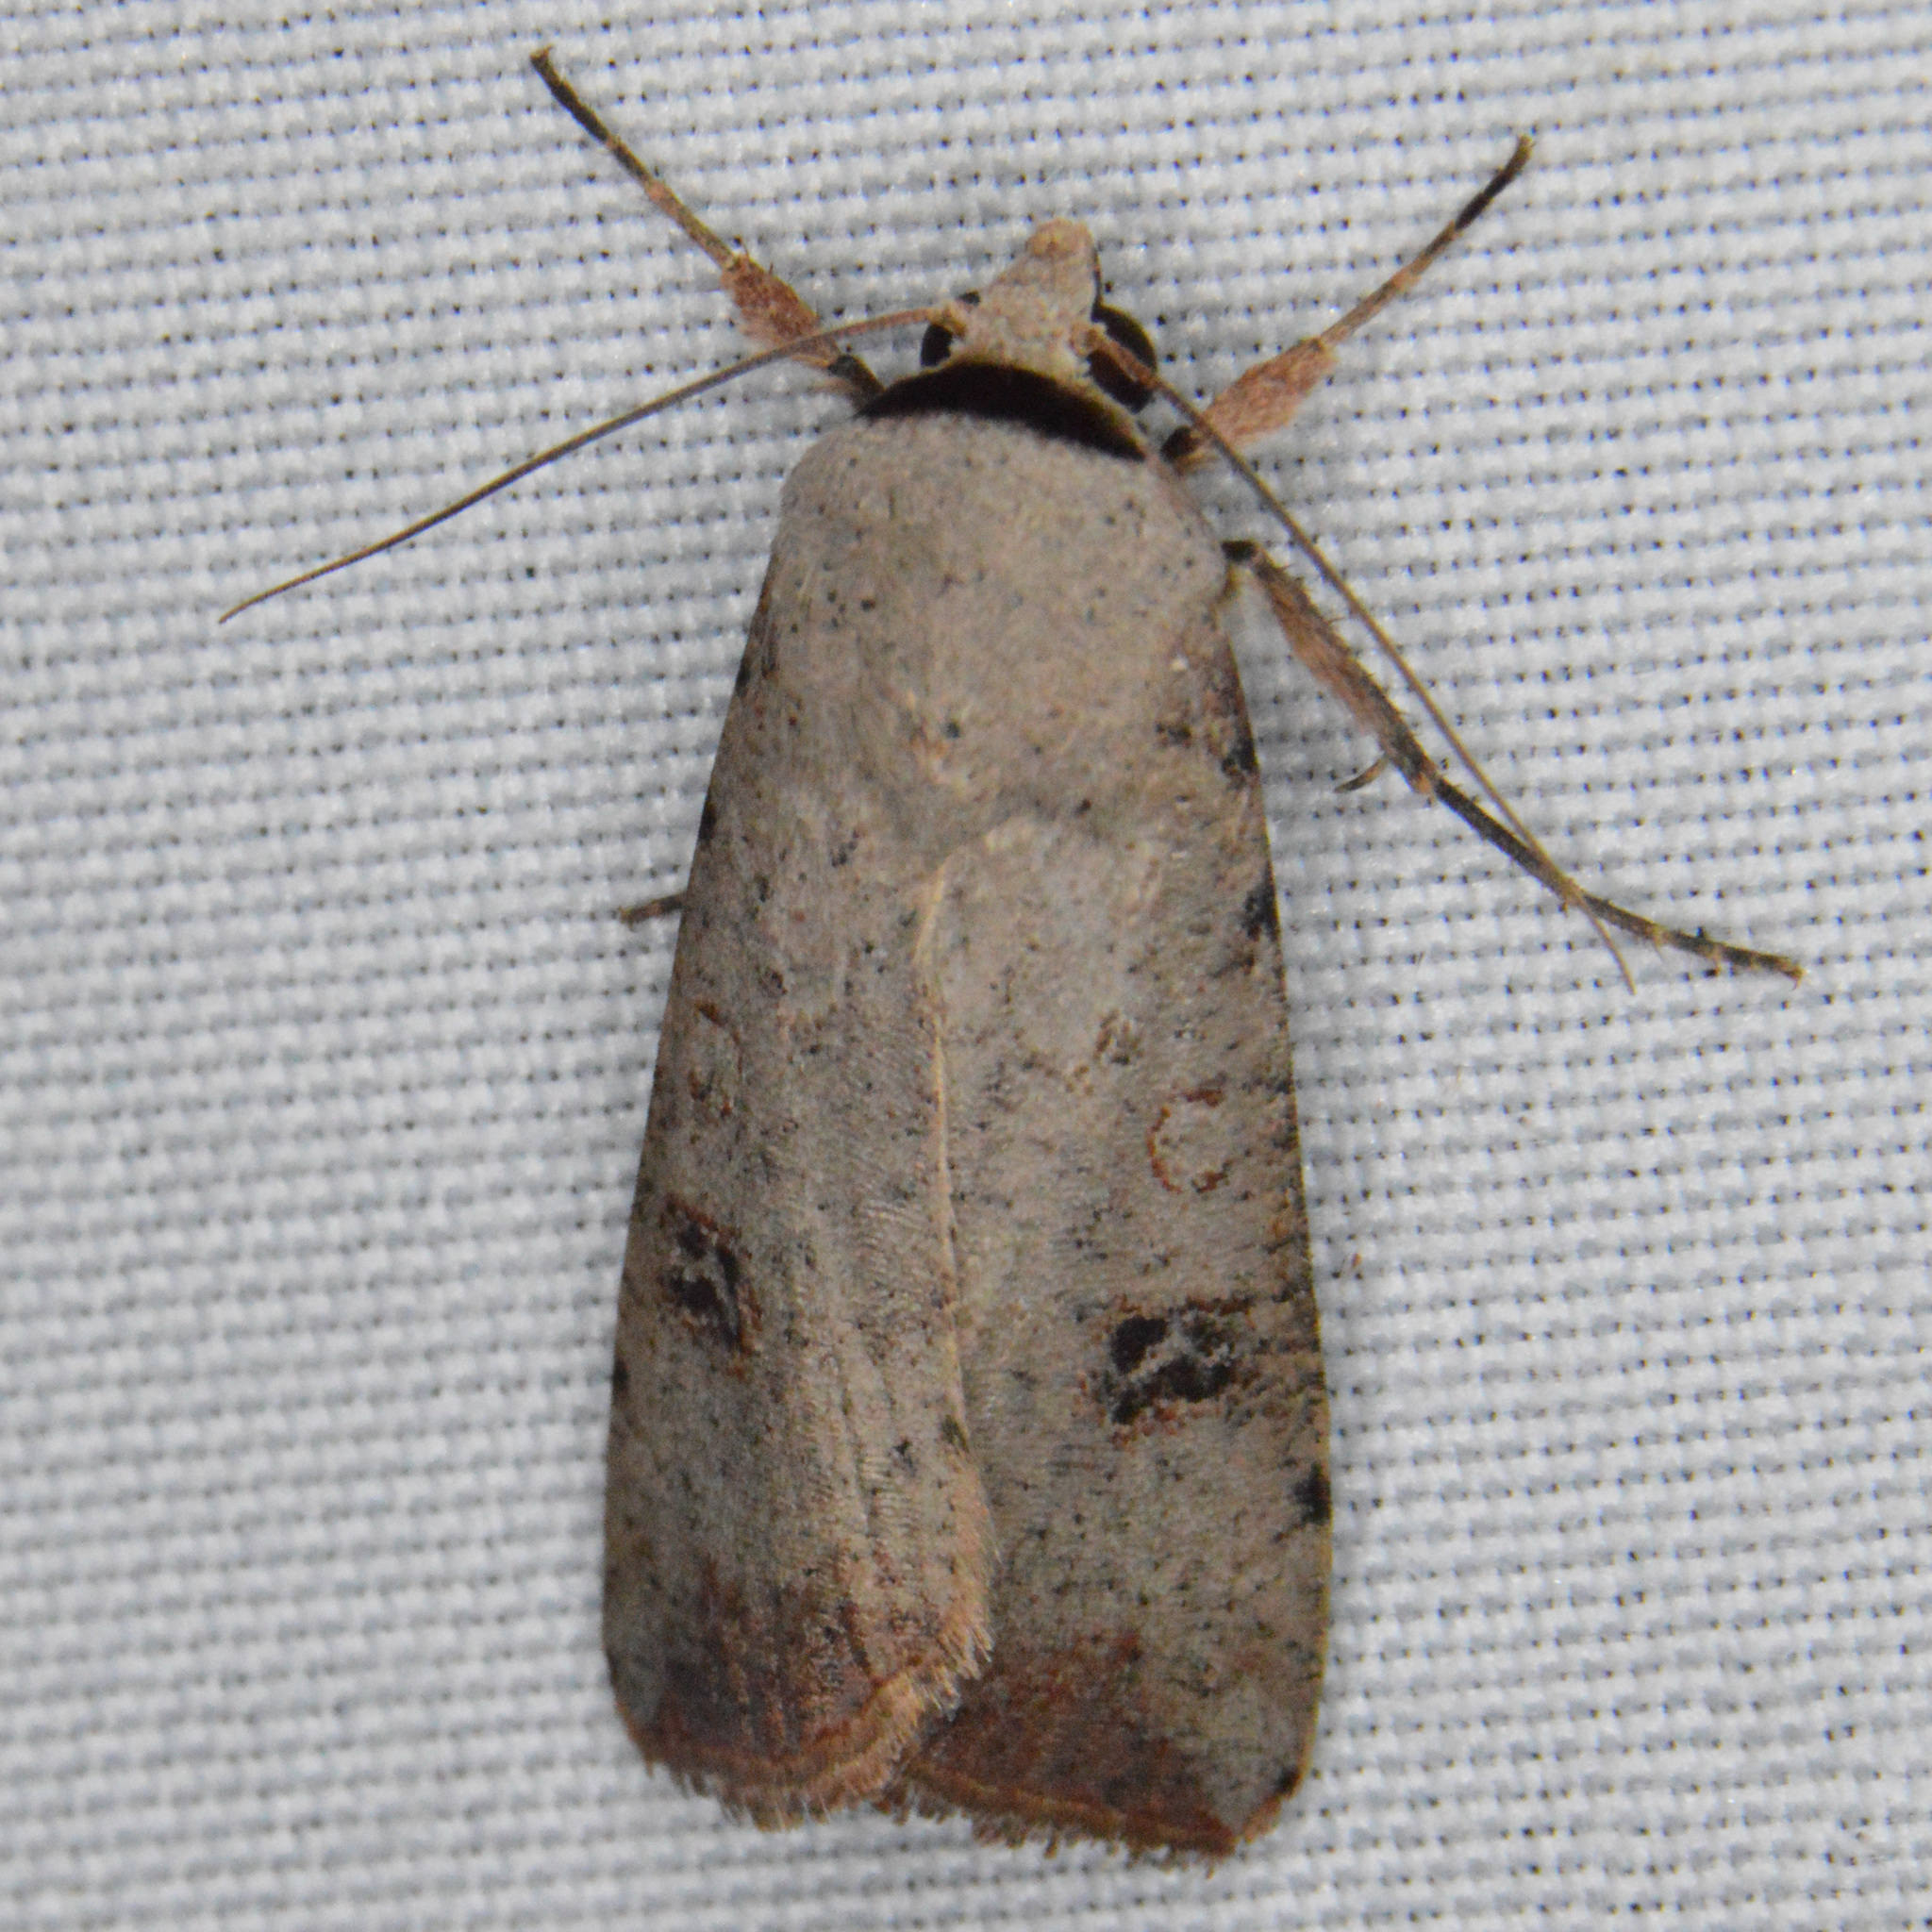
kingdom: Animalia
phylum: Arthropoda
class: Insecta
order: Lepidoptera
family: Noctuidae
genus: Anicla
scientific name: Anicla infecta
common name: Green cutworm
